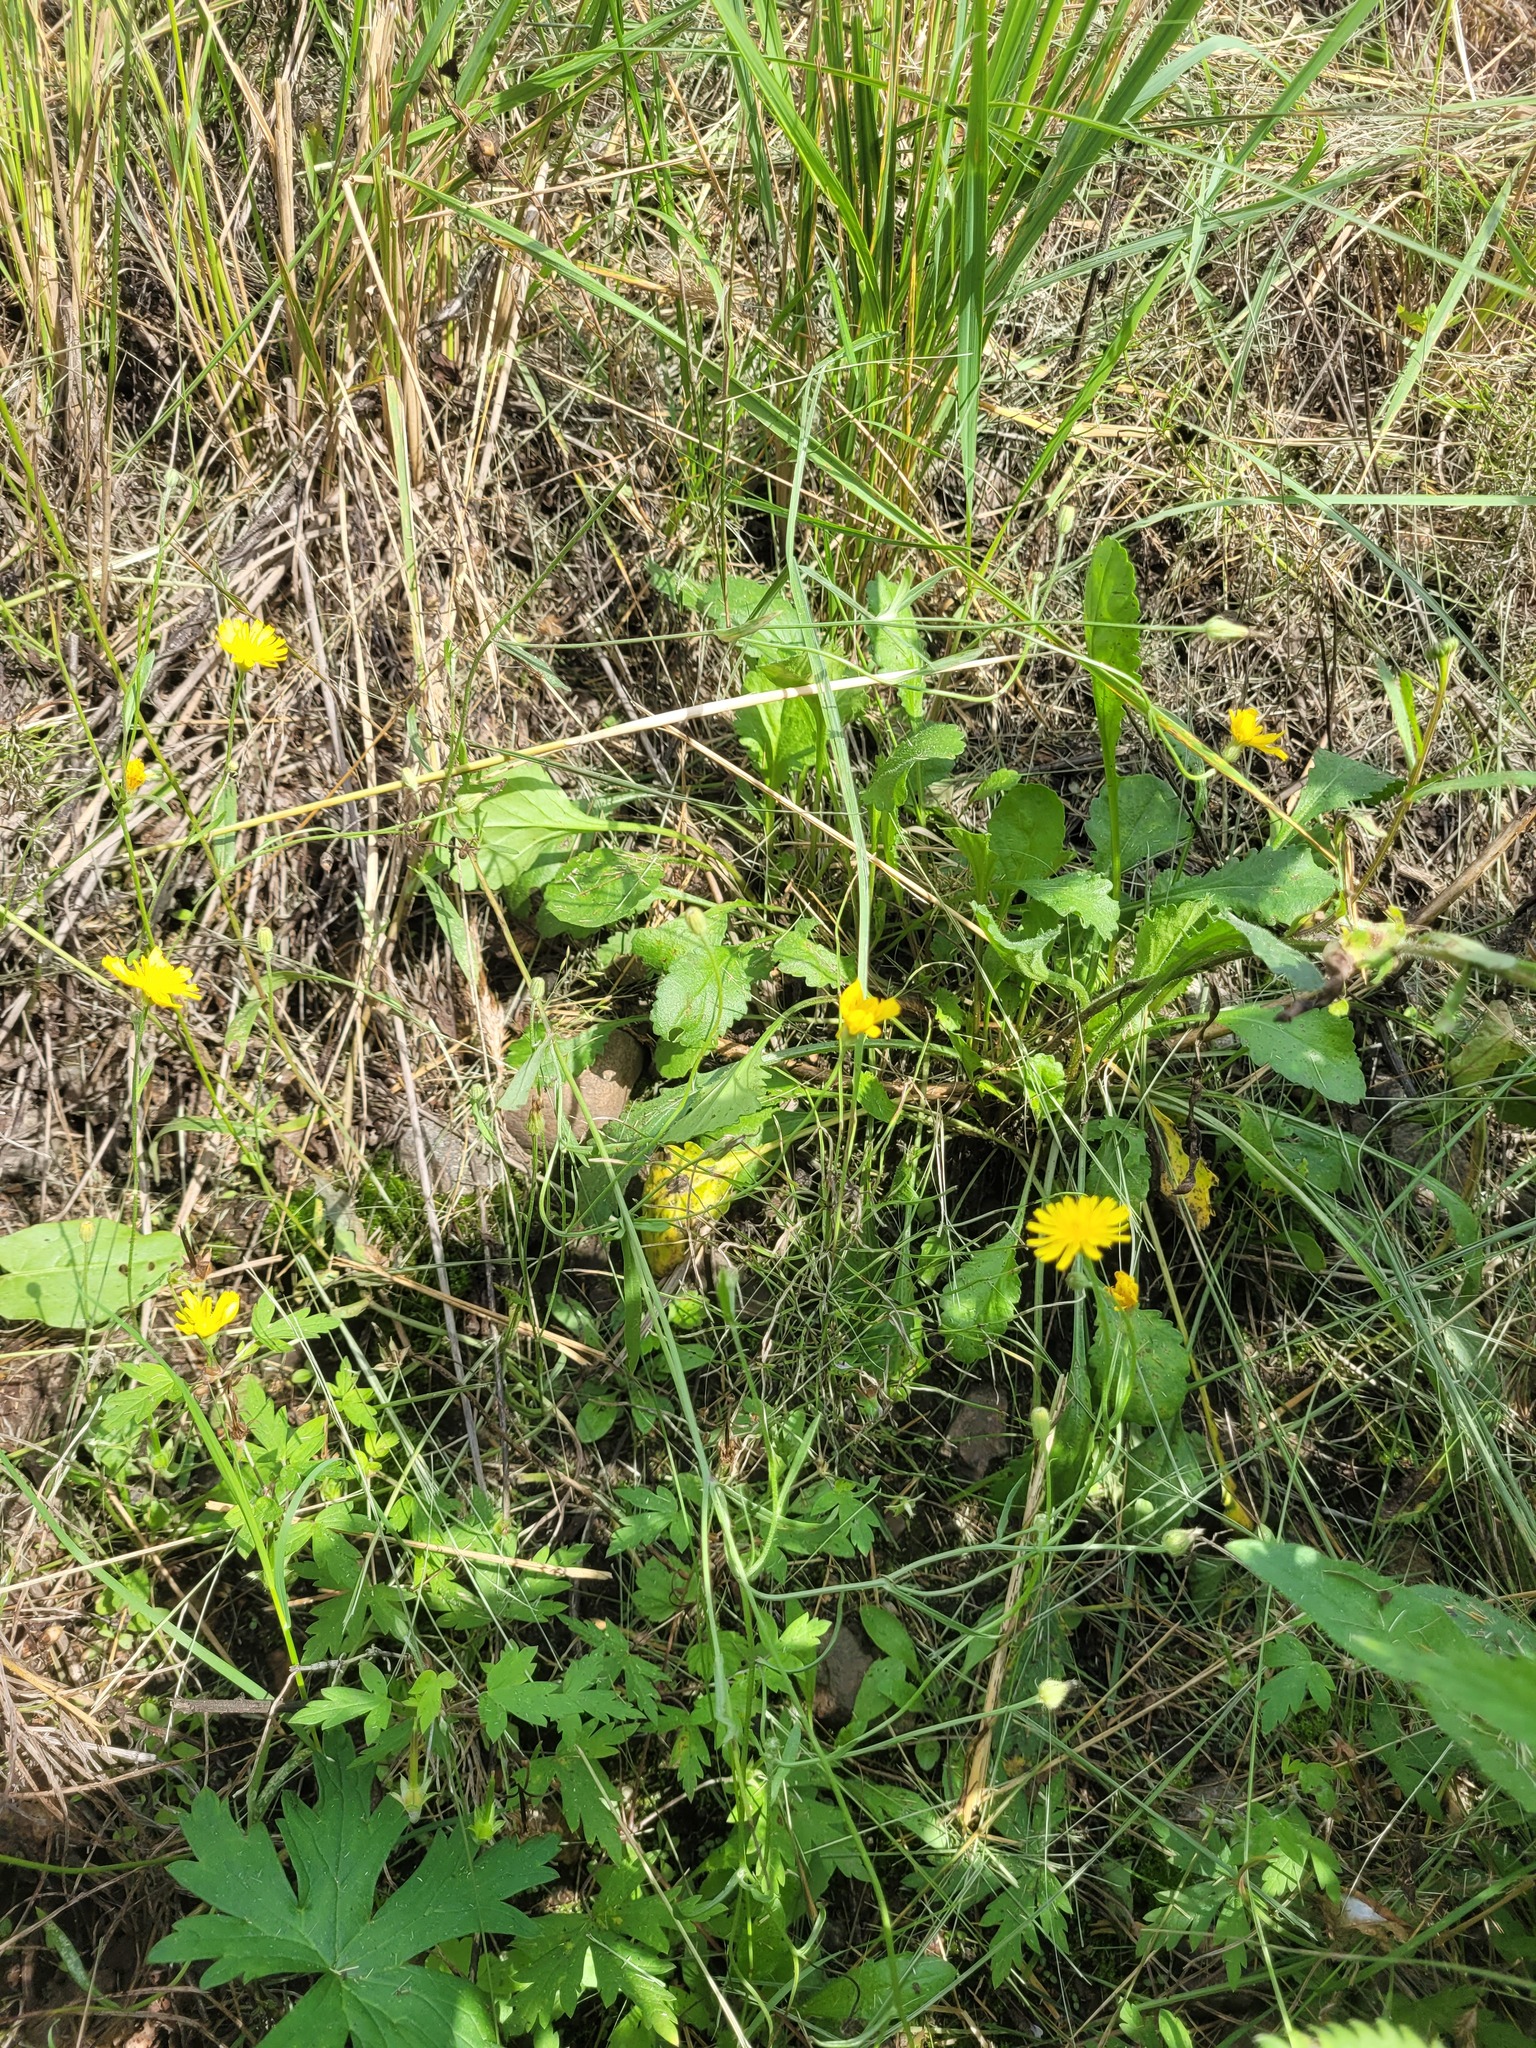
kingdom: Plantae
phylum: Tracheophyta
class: Magnoliopsida
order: Asterales
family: Asteraceae
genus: Crepis
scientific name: Crepis tectorum
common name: Narrow-leaved hawk's-beard
